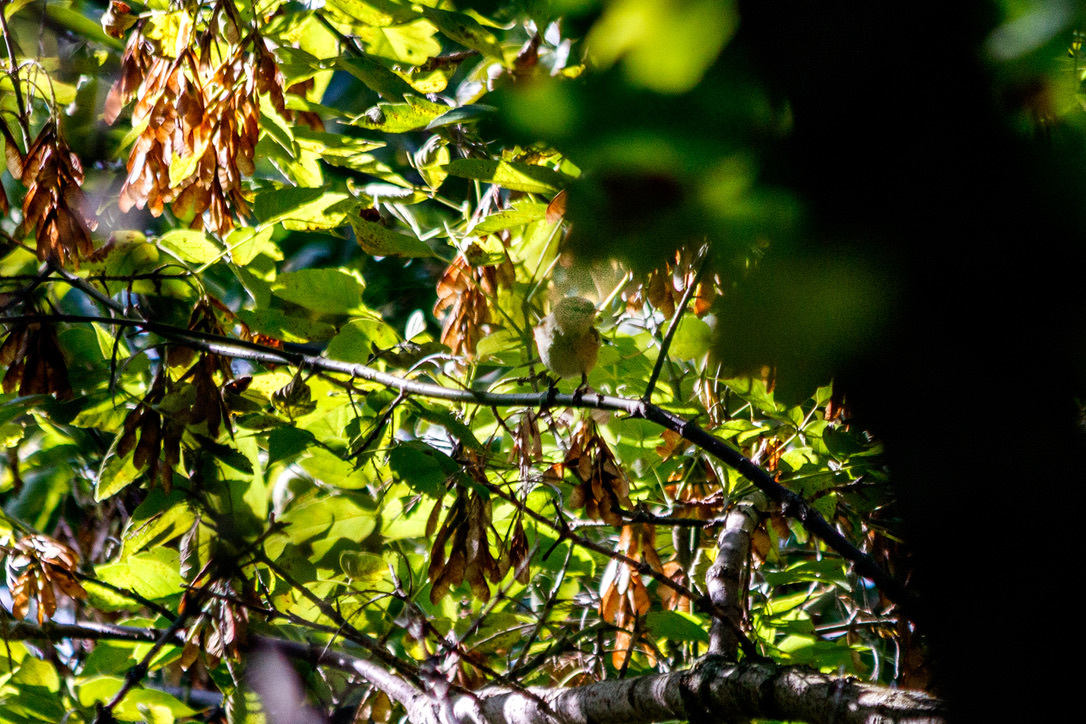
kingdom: Animalia
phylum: Chordata
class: Aves
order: Passeriformes
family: Phylloscopidae
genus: Phylloscopus
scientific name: Phylloscopus collybita
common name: Common chiffchaff
